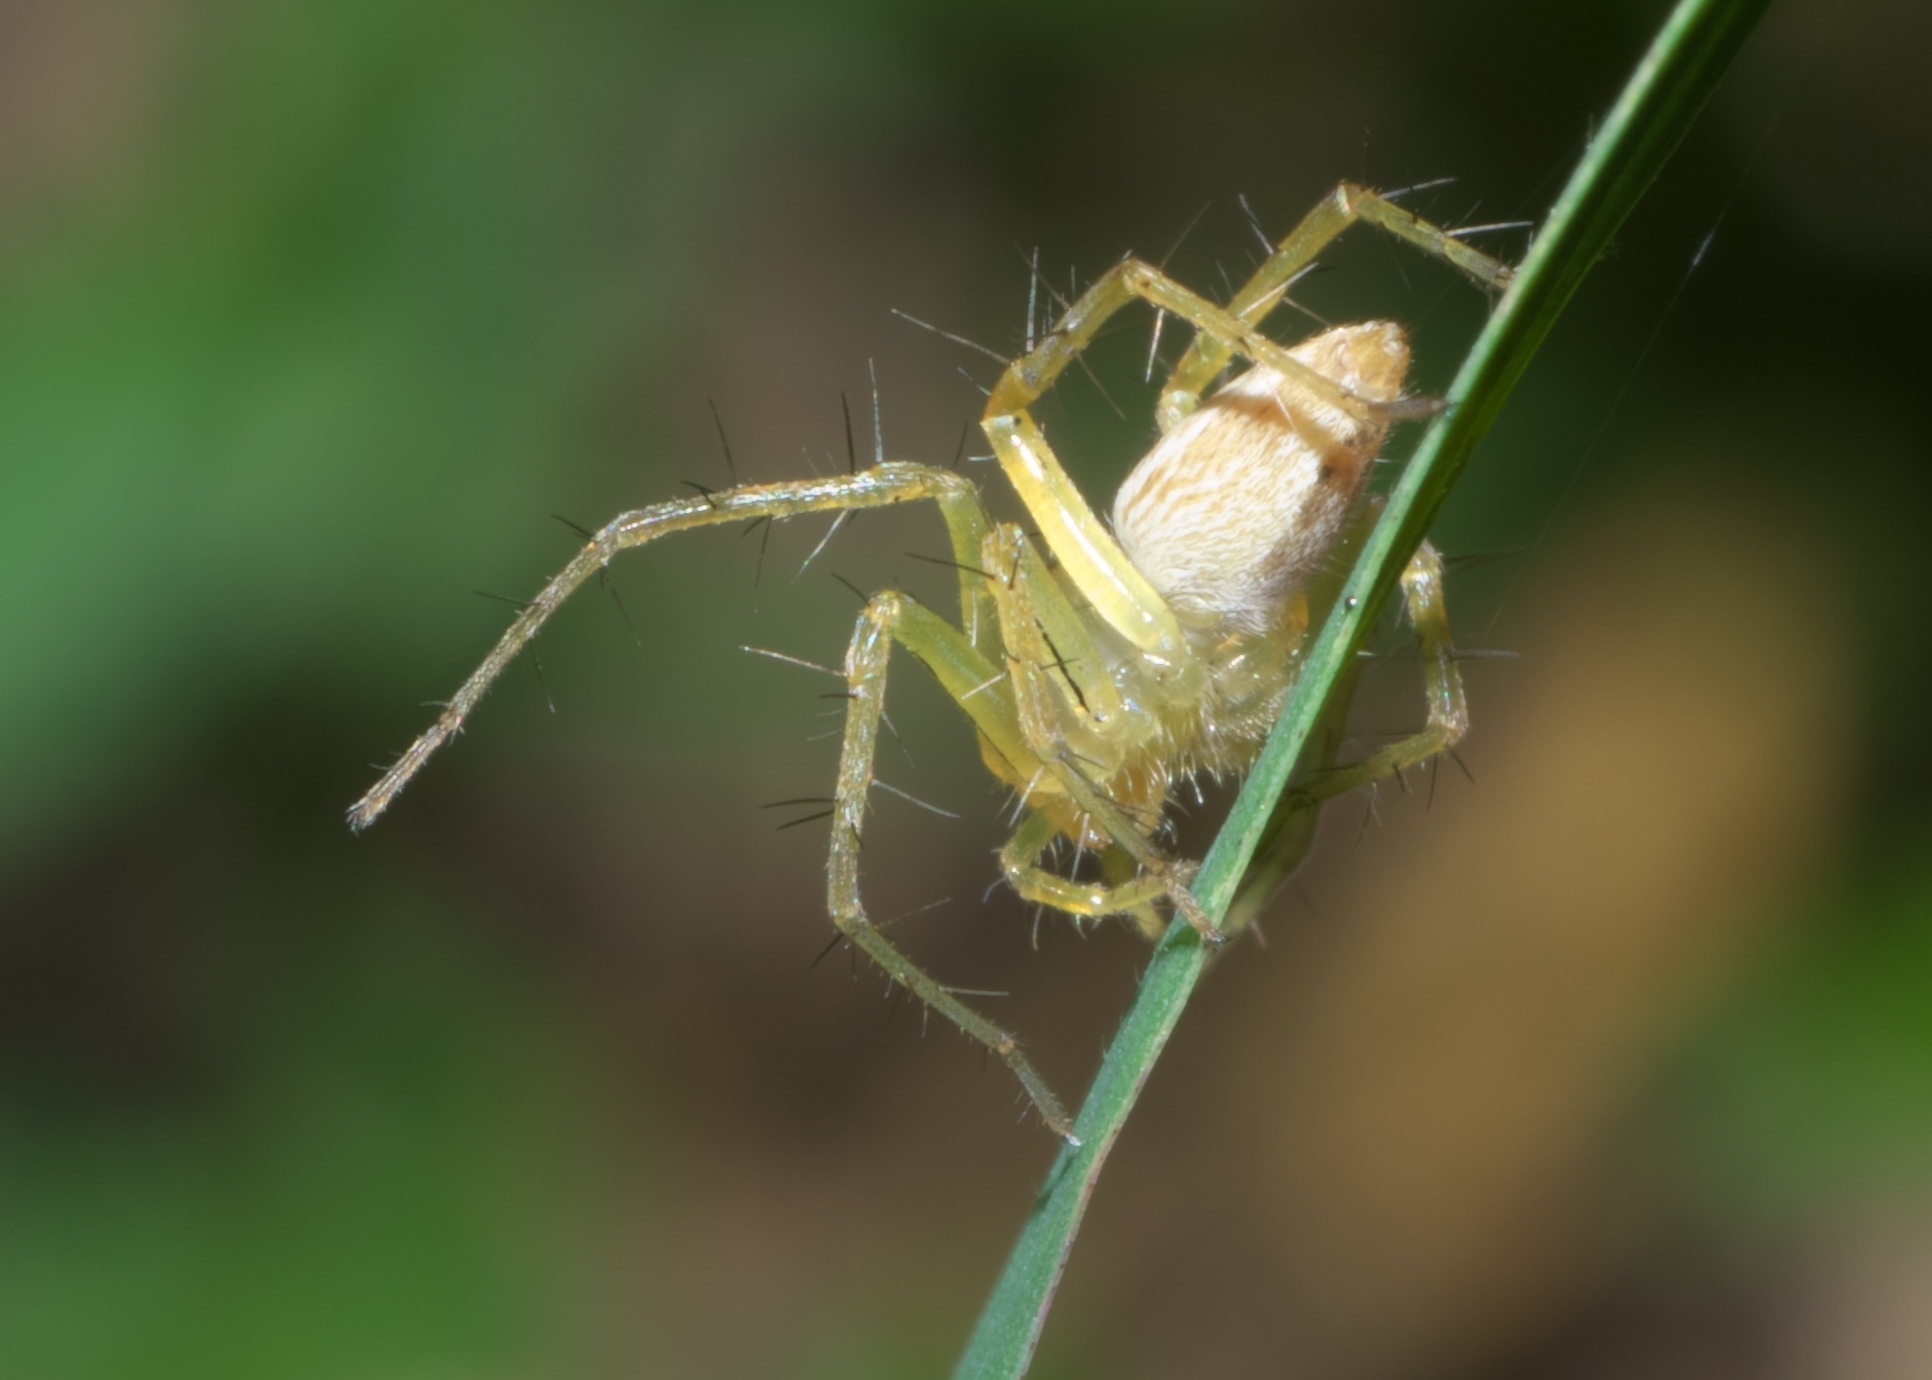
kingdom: Animalia
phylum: Arthropoda
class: Arachnida
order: Araneae
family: Oxyopidae
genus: Oxyopes
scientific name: Oxyopes salticus
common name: Lynx spiders
